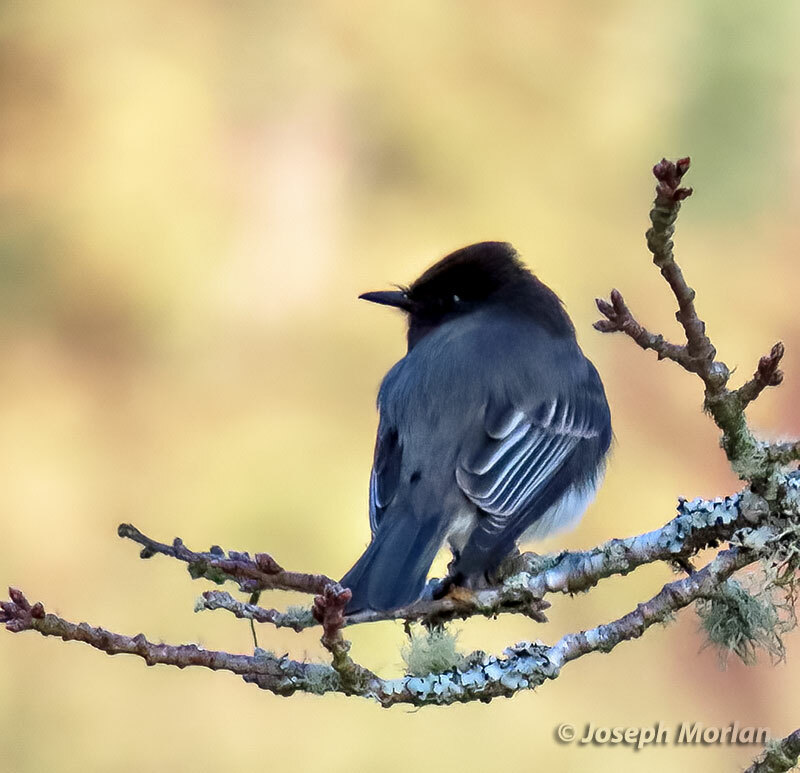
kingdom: Animalia
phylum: Chordata
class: Aves
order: Passeriformes
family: Tyrannidae
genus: Sayornis
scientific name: Sayornis nigricans
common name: Black phoebe
